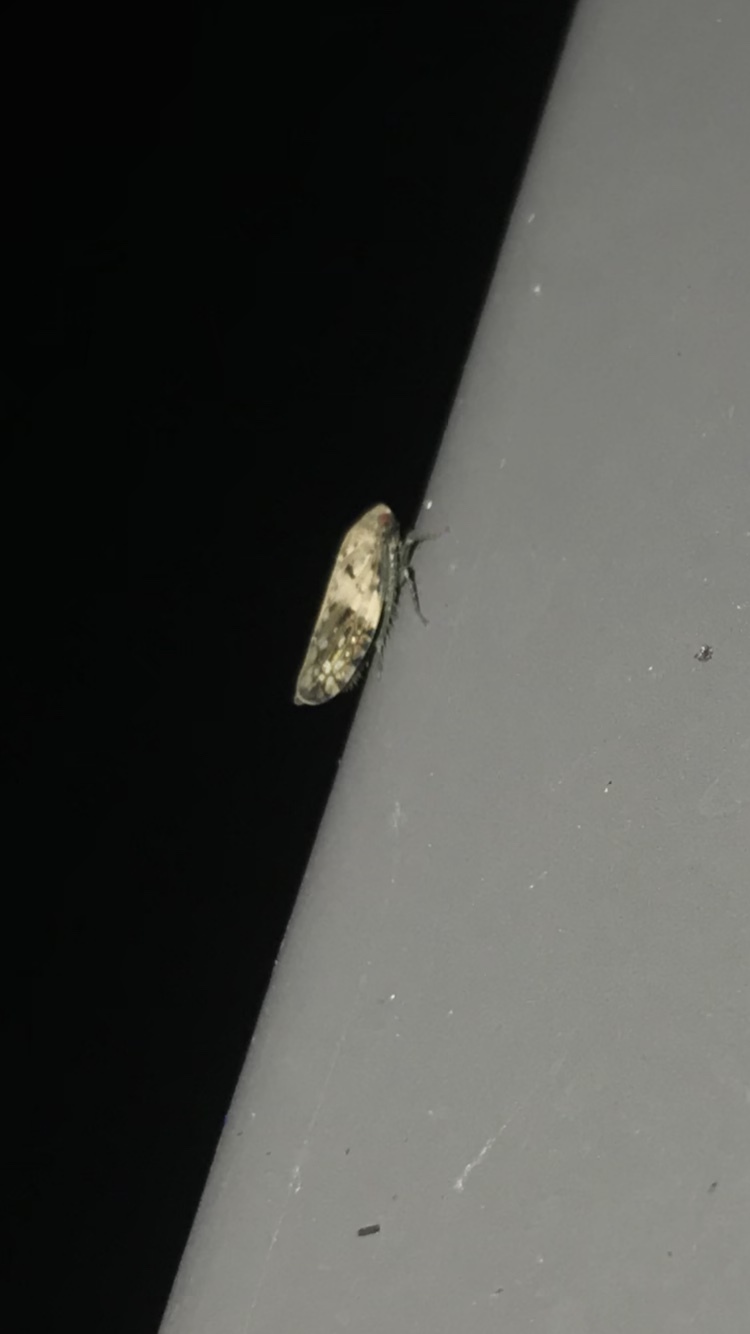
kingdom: Animalia
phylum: Arthropoda
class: Insecta
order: Hemiptera
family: Cicadellidae
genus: Menosoma
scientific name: Menosoma cinctum
